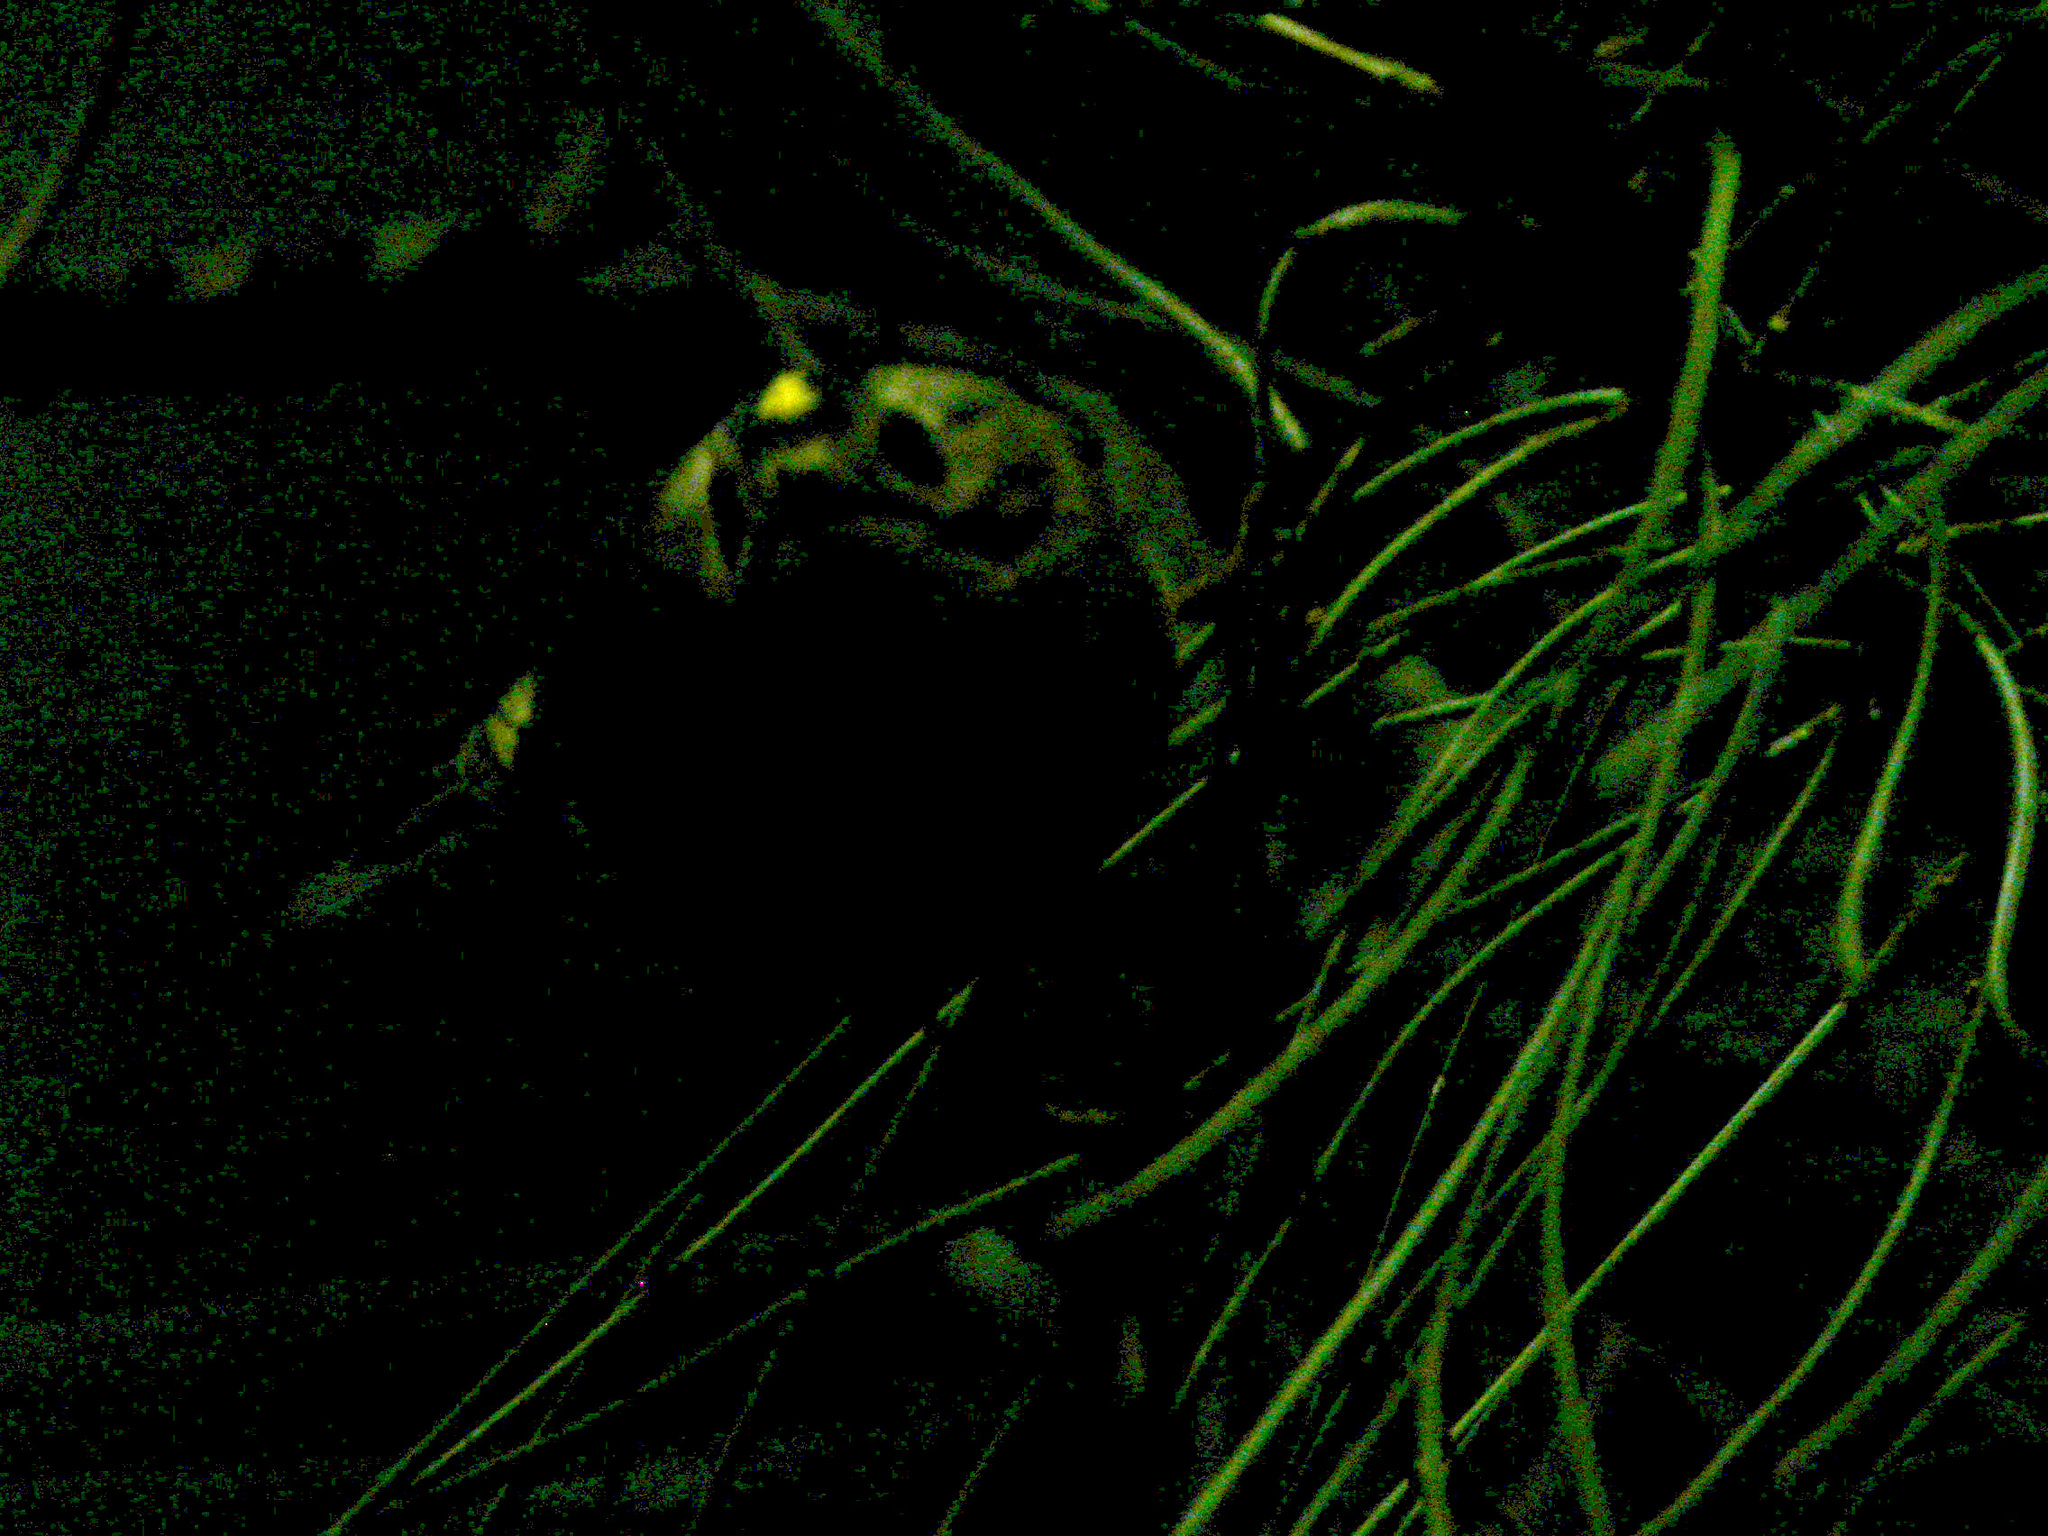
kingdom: Animalia
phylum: Chordata
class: Aves
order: Passeriformes
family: Regulidae
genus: Regulus
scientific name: Regulus regulus
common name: Goldcrest
